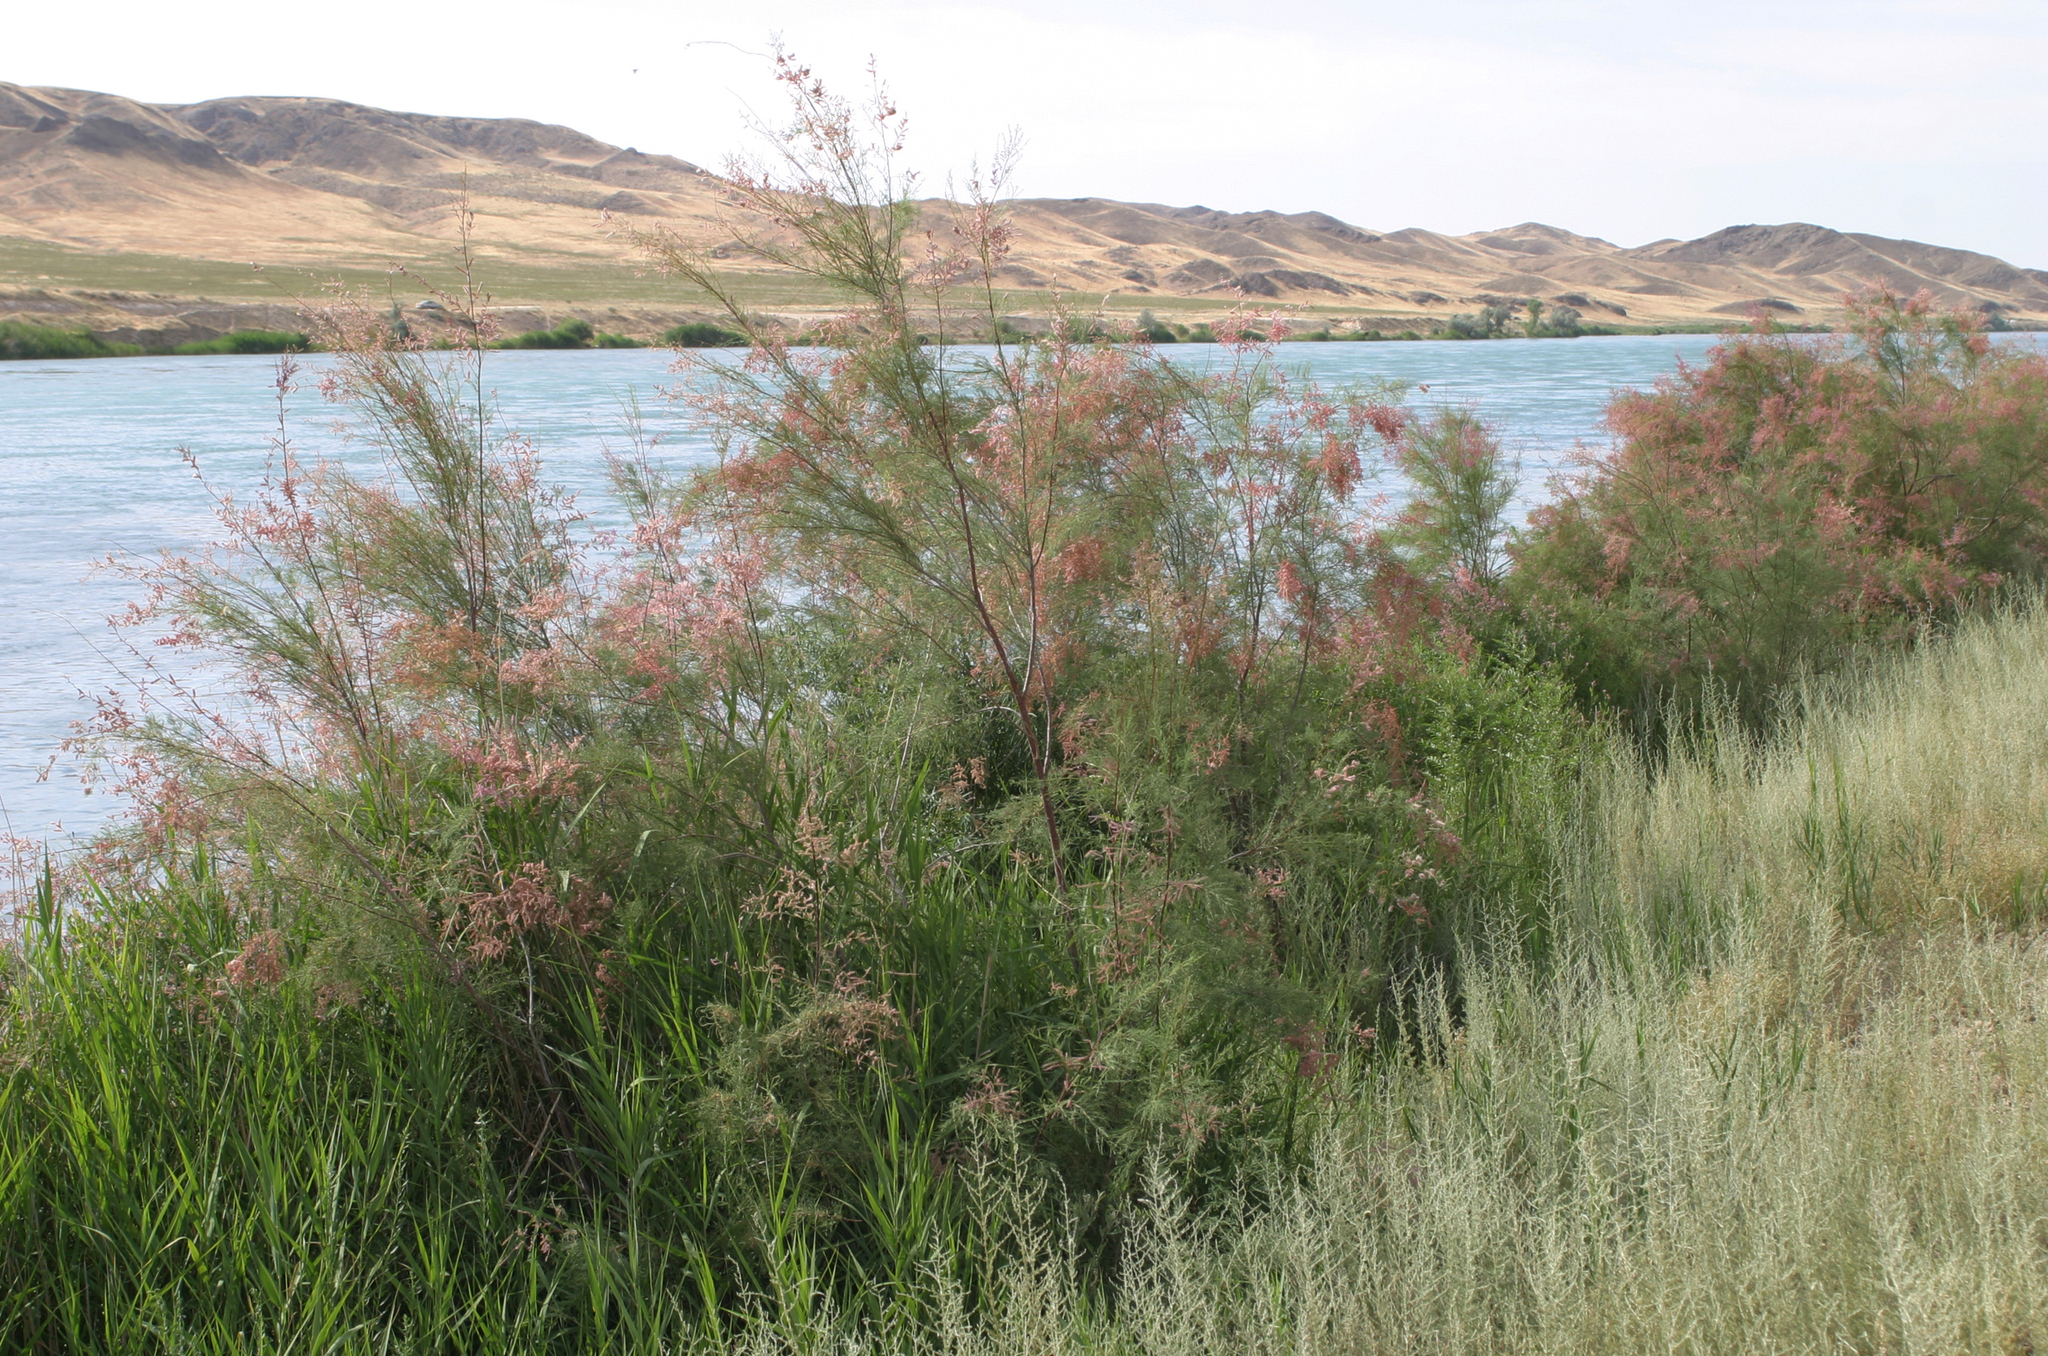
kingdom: Plantae
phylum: Tracheophyta
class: Magnoliopsida
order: Caryophyllales
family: Tamaricaceae
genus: Tamarix
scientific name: Tamarix ramosissima
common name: Pink tamarisk
